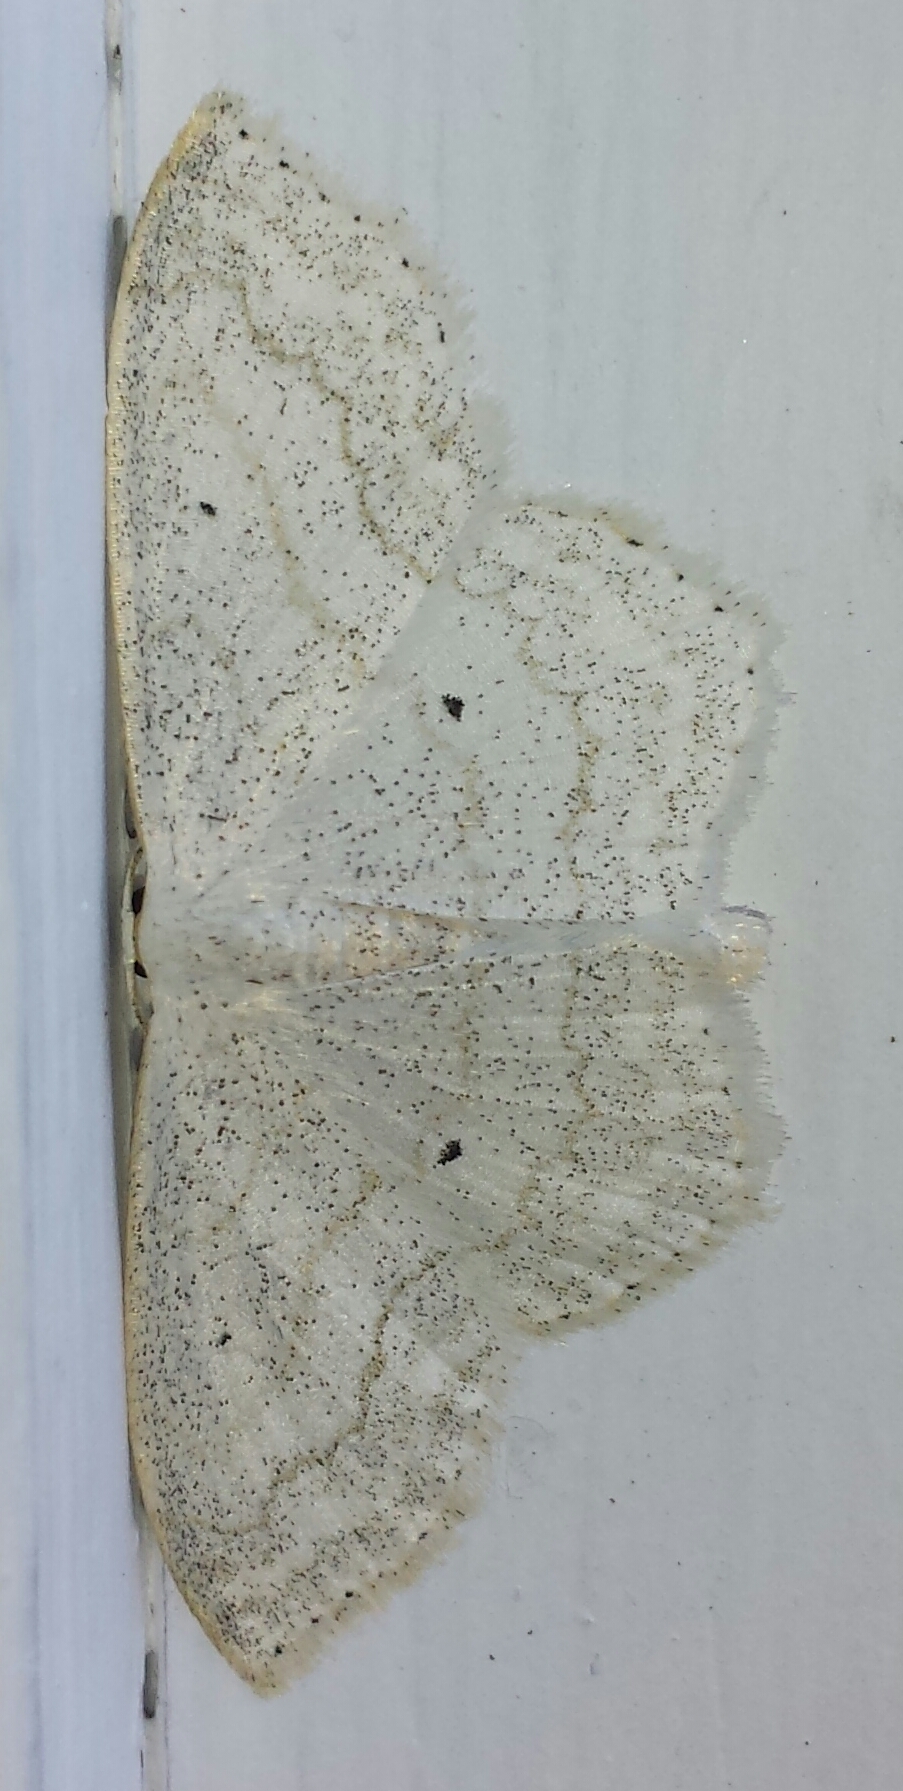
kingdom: Animalia
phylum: Arthropoda
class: Insecta
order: Lepidoptera
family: Geometridae
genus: Scopula
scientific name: Scopula limboundata
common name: Large lace border
